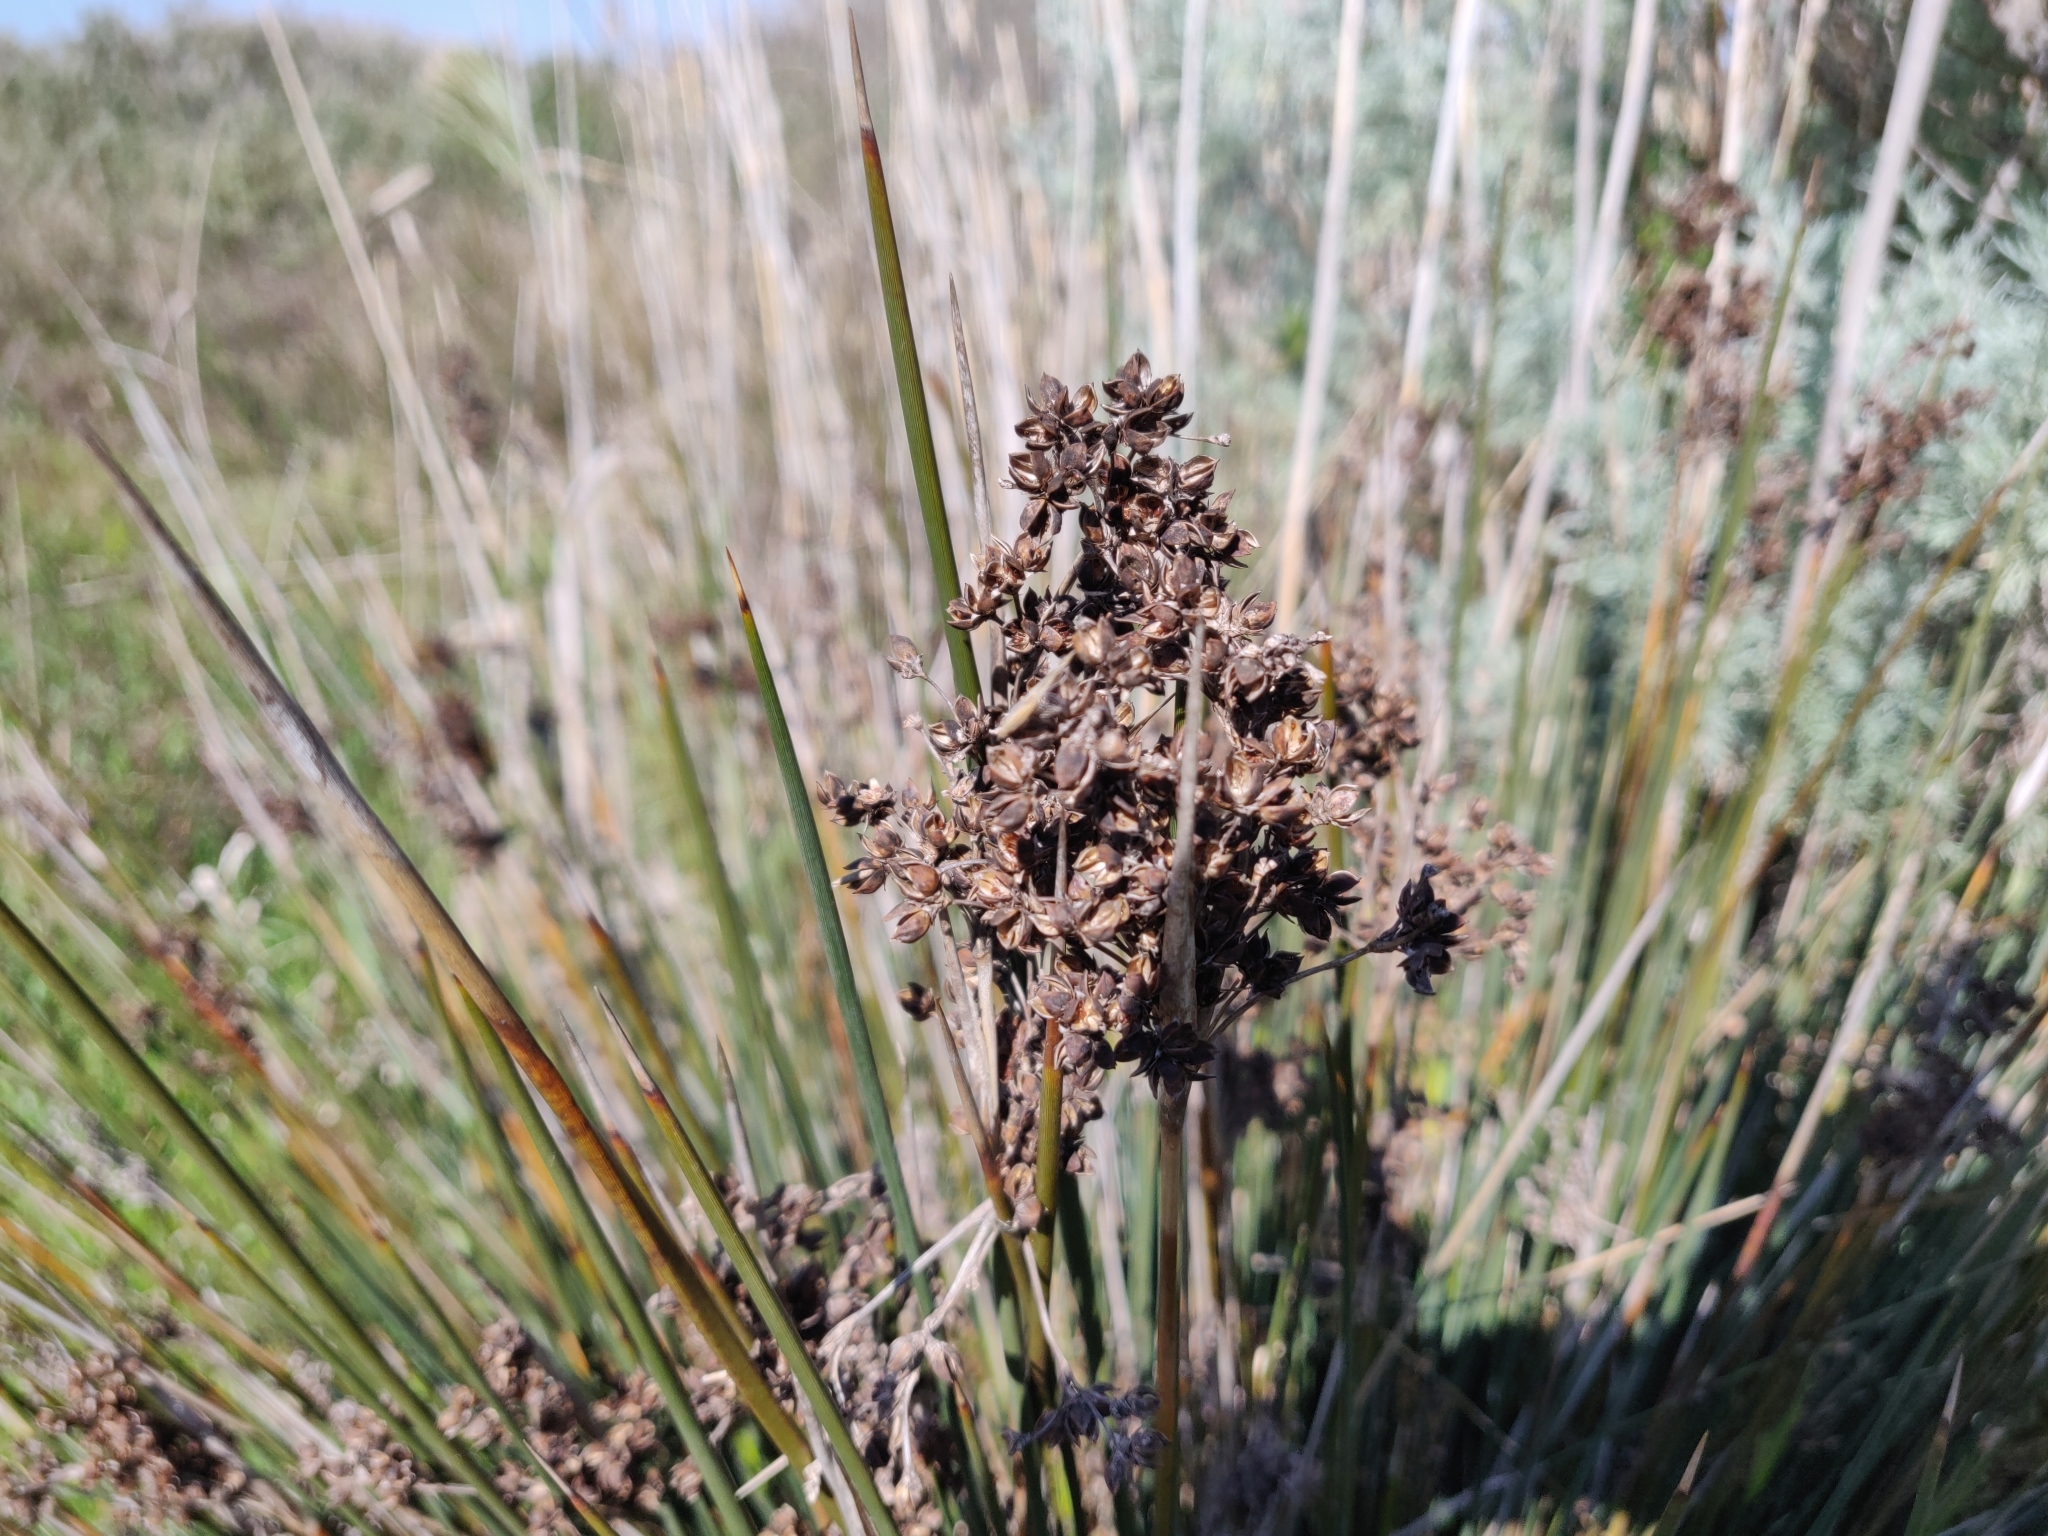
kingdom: Plantae
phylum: Tracheophyta
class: Liliopsida
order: Poales
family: Juncaceae
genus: Juncus
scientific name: Juncus acutus
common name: Sharp rush
